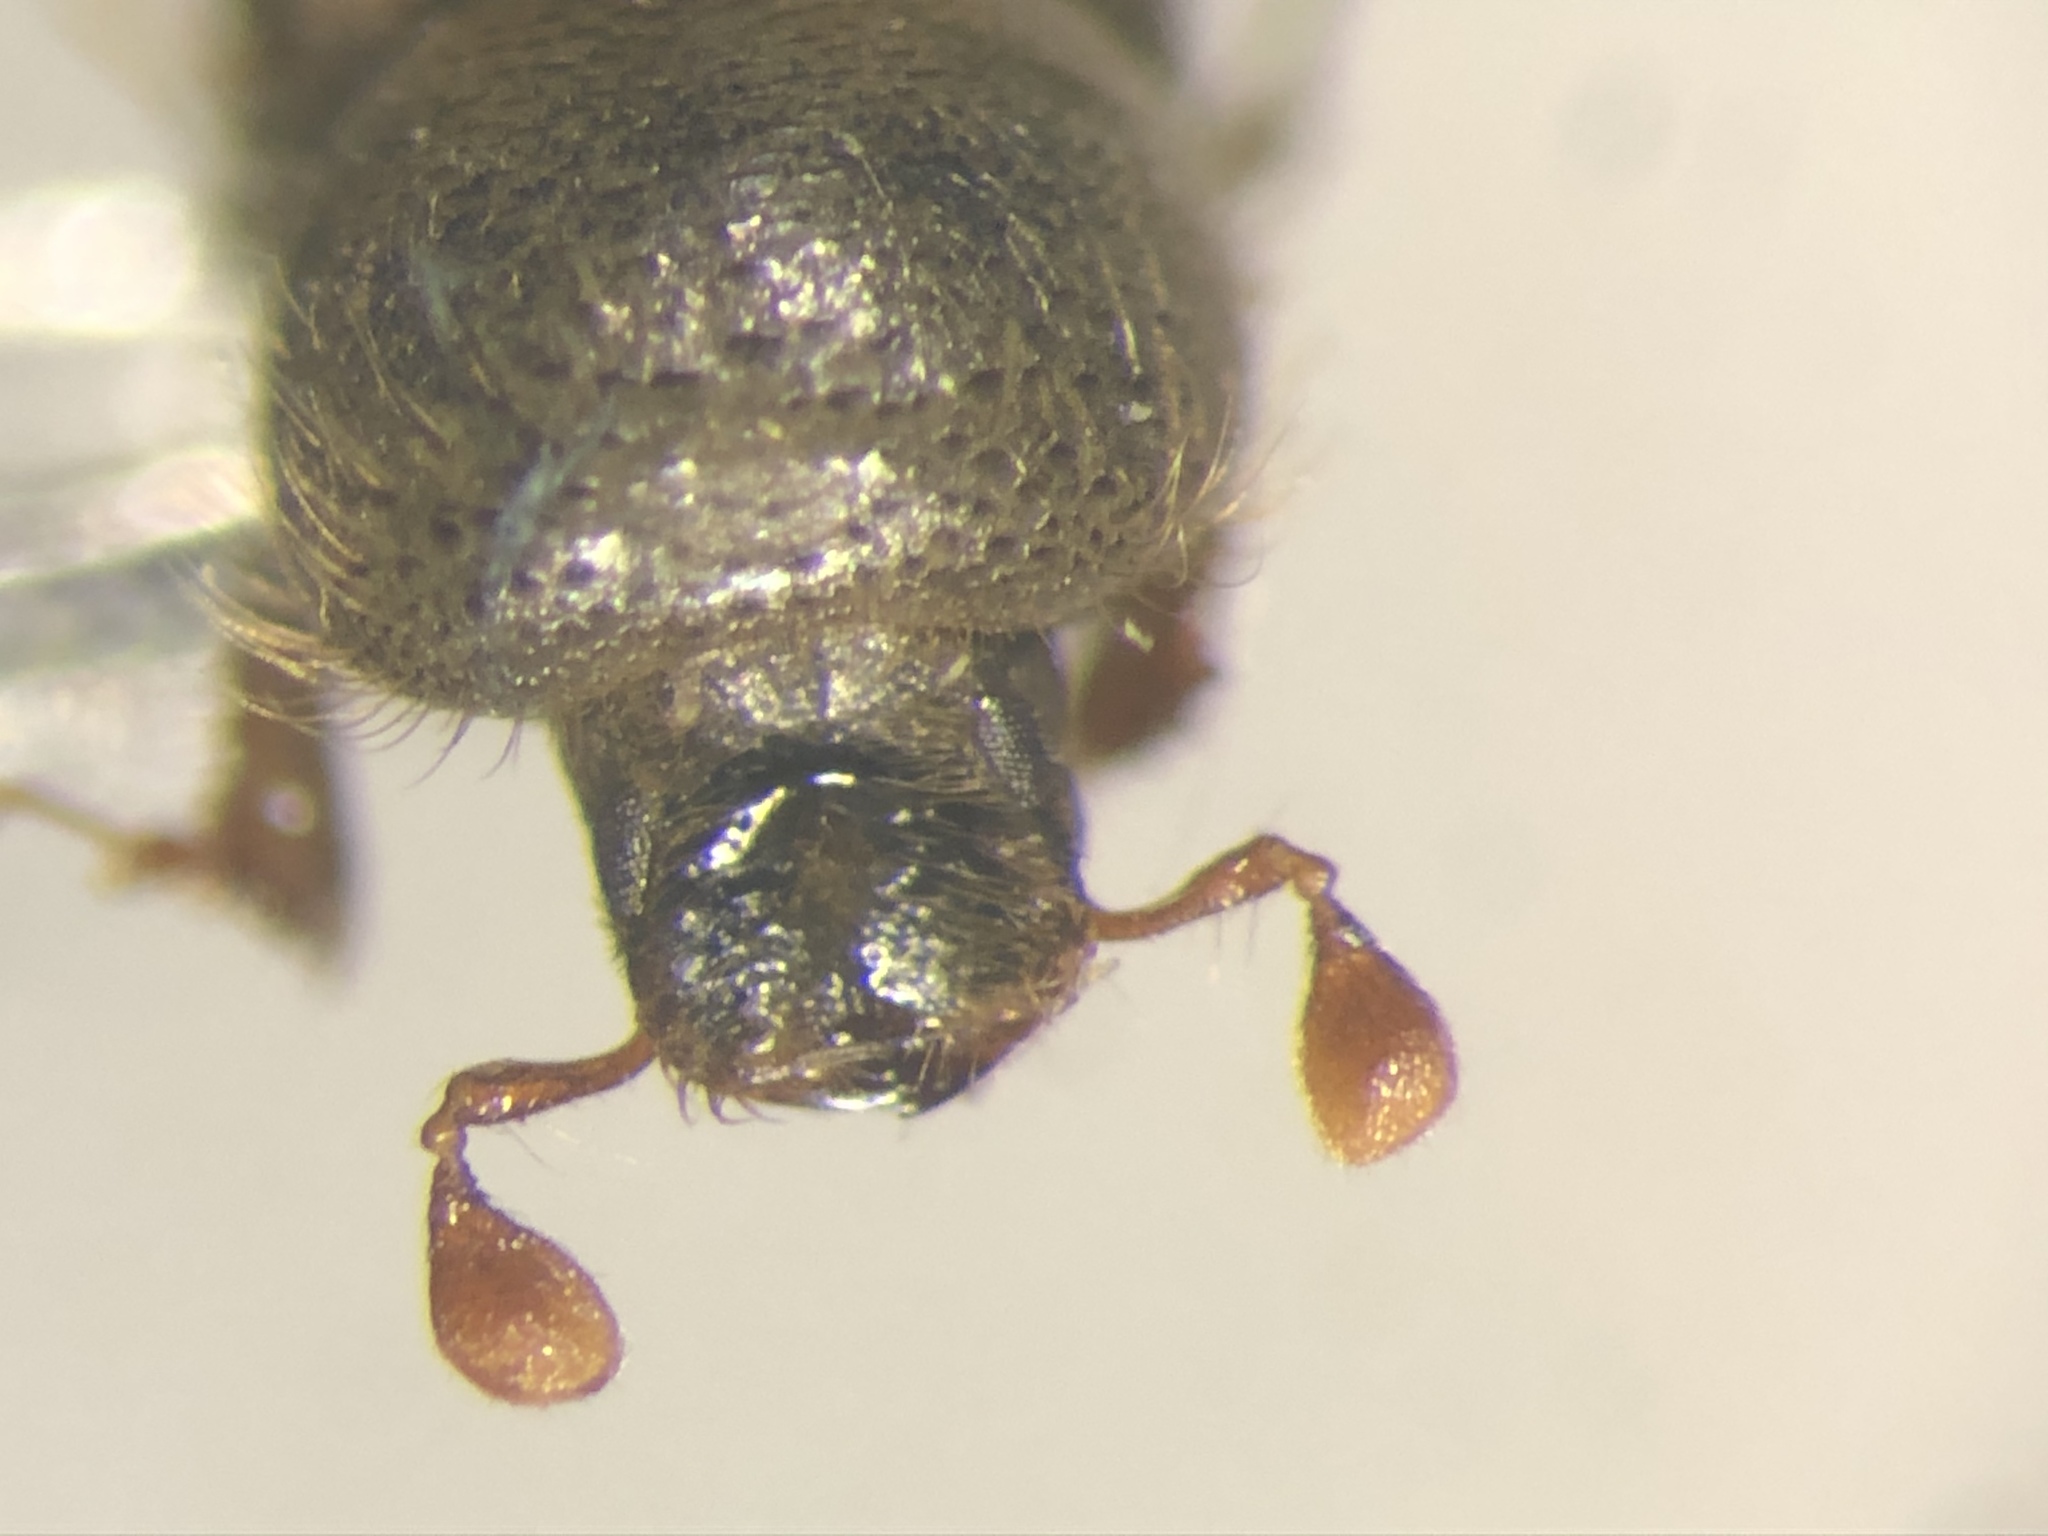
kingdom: Animalia
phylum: Arthropoda
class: Insecta
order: Coleoptera
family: Curculionidae
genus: Trypodendron
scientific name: Trypodendron betulae
